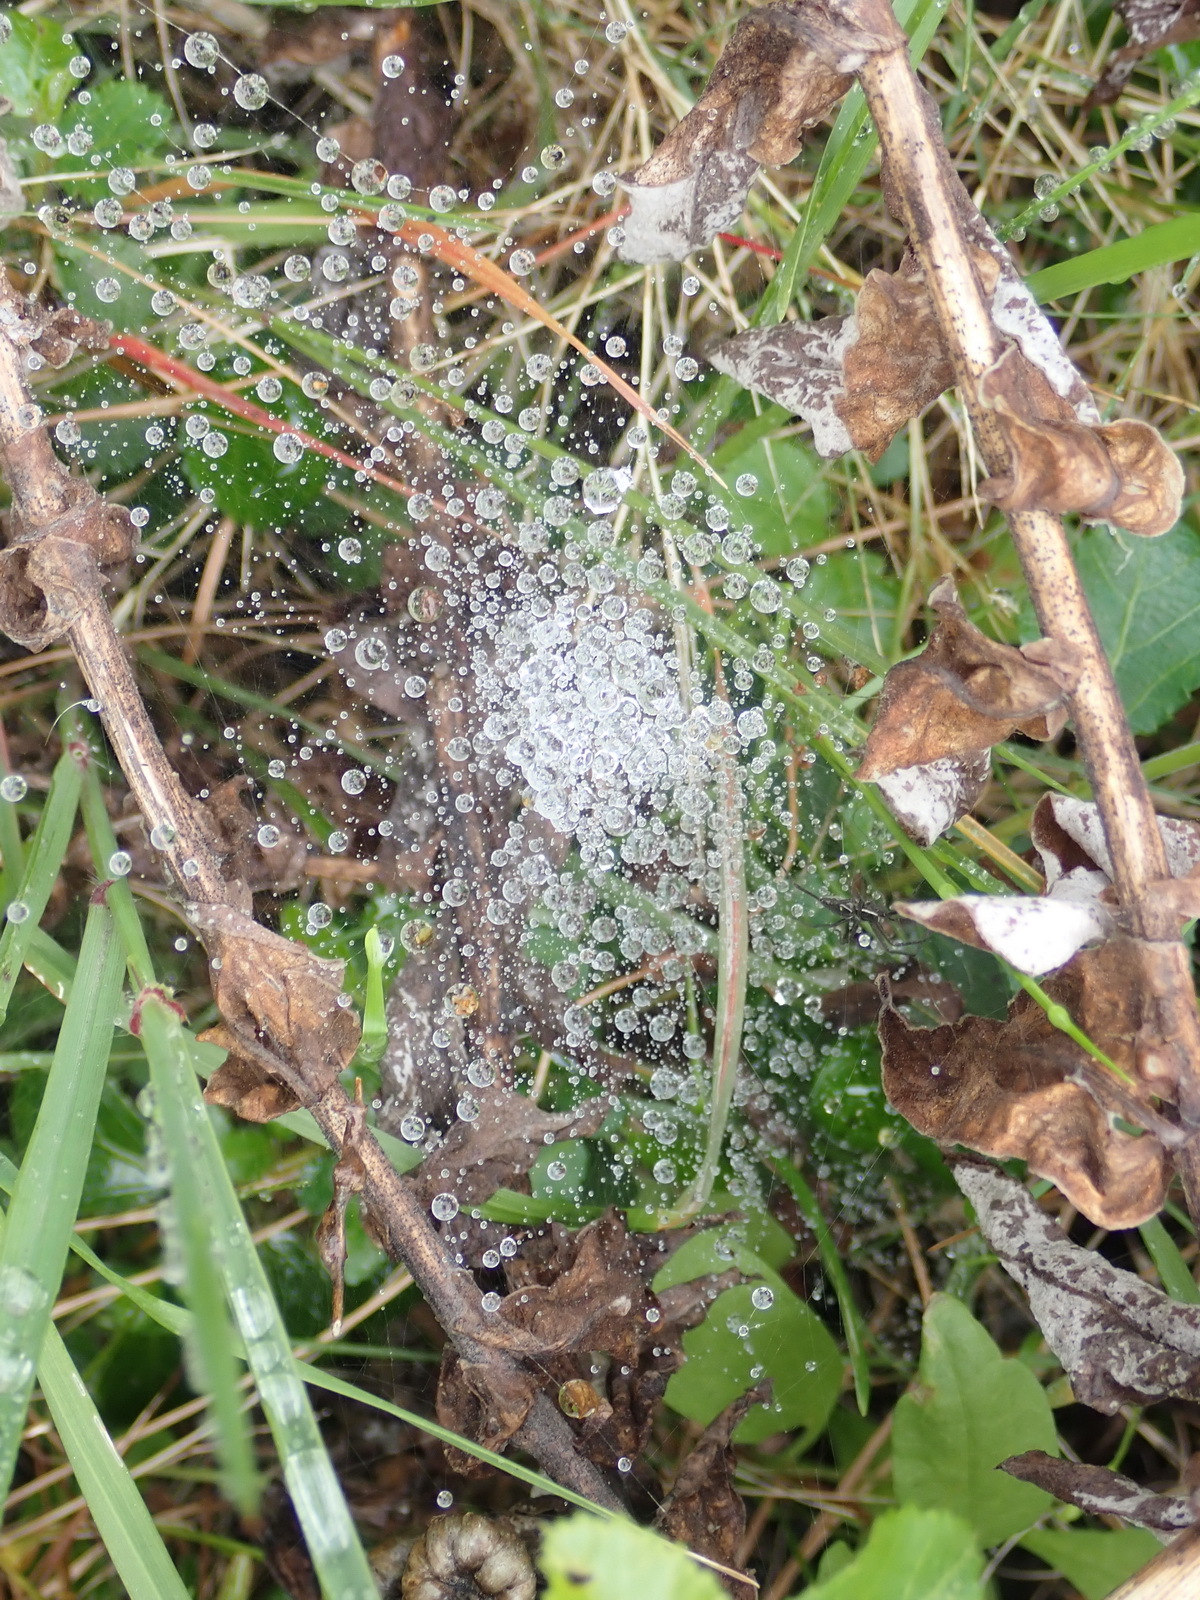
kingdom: Animalia
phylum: Arthropoda
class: Arachnida
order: Araneae
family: Pisauridae
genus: Euprosthenopsis
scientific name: Euprosthenopsis pulchella
